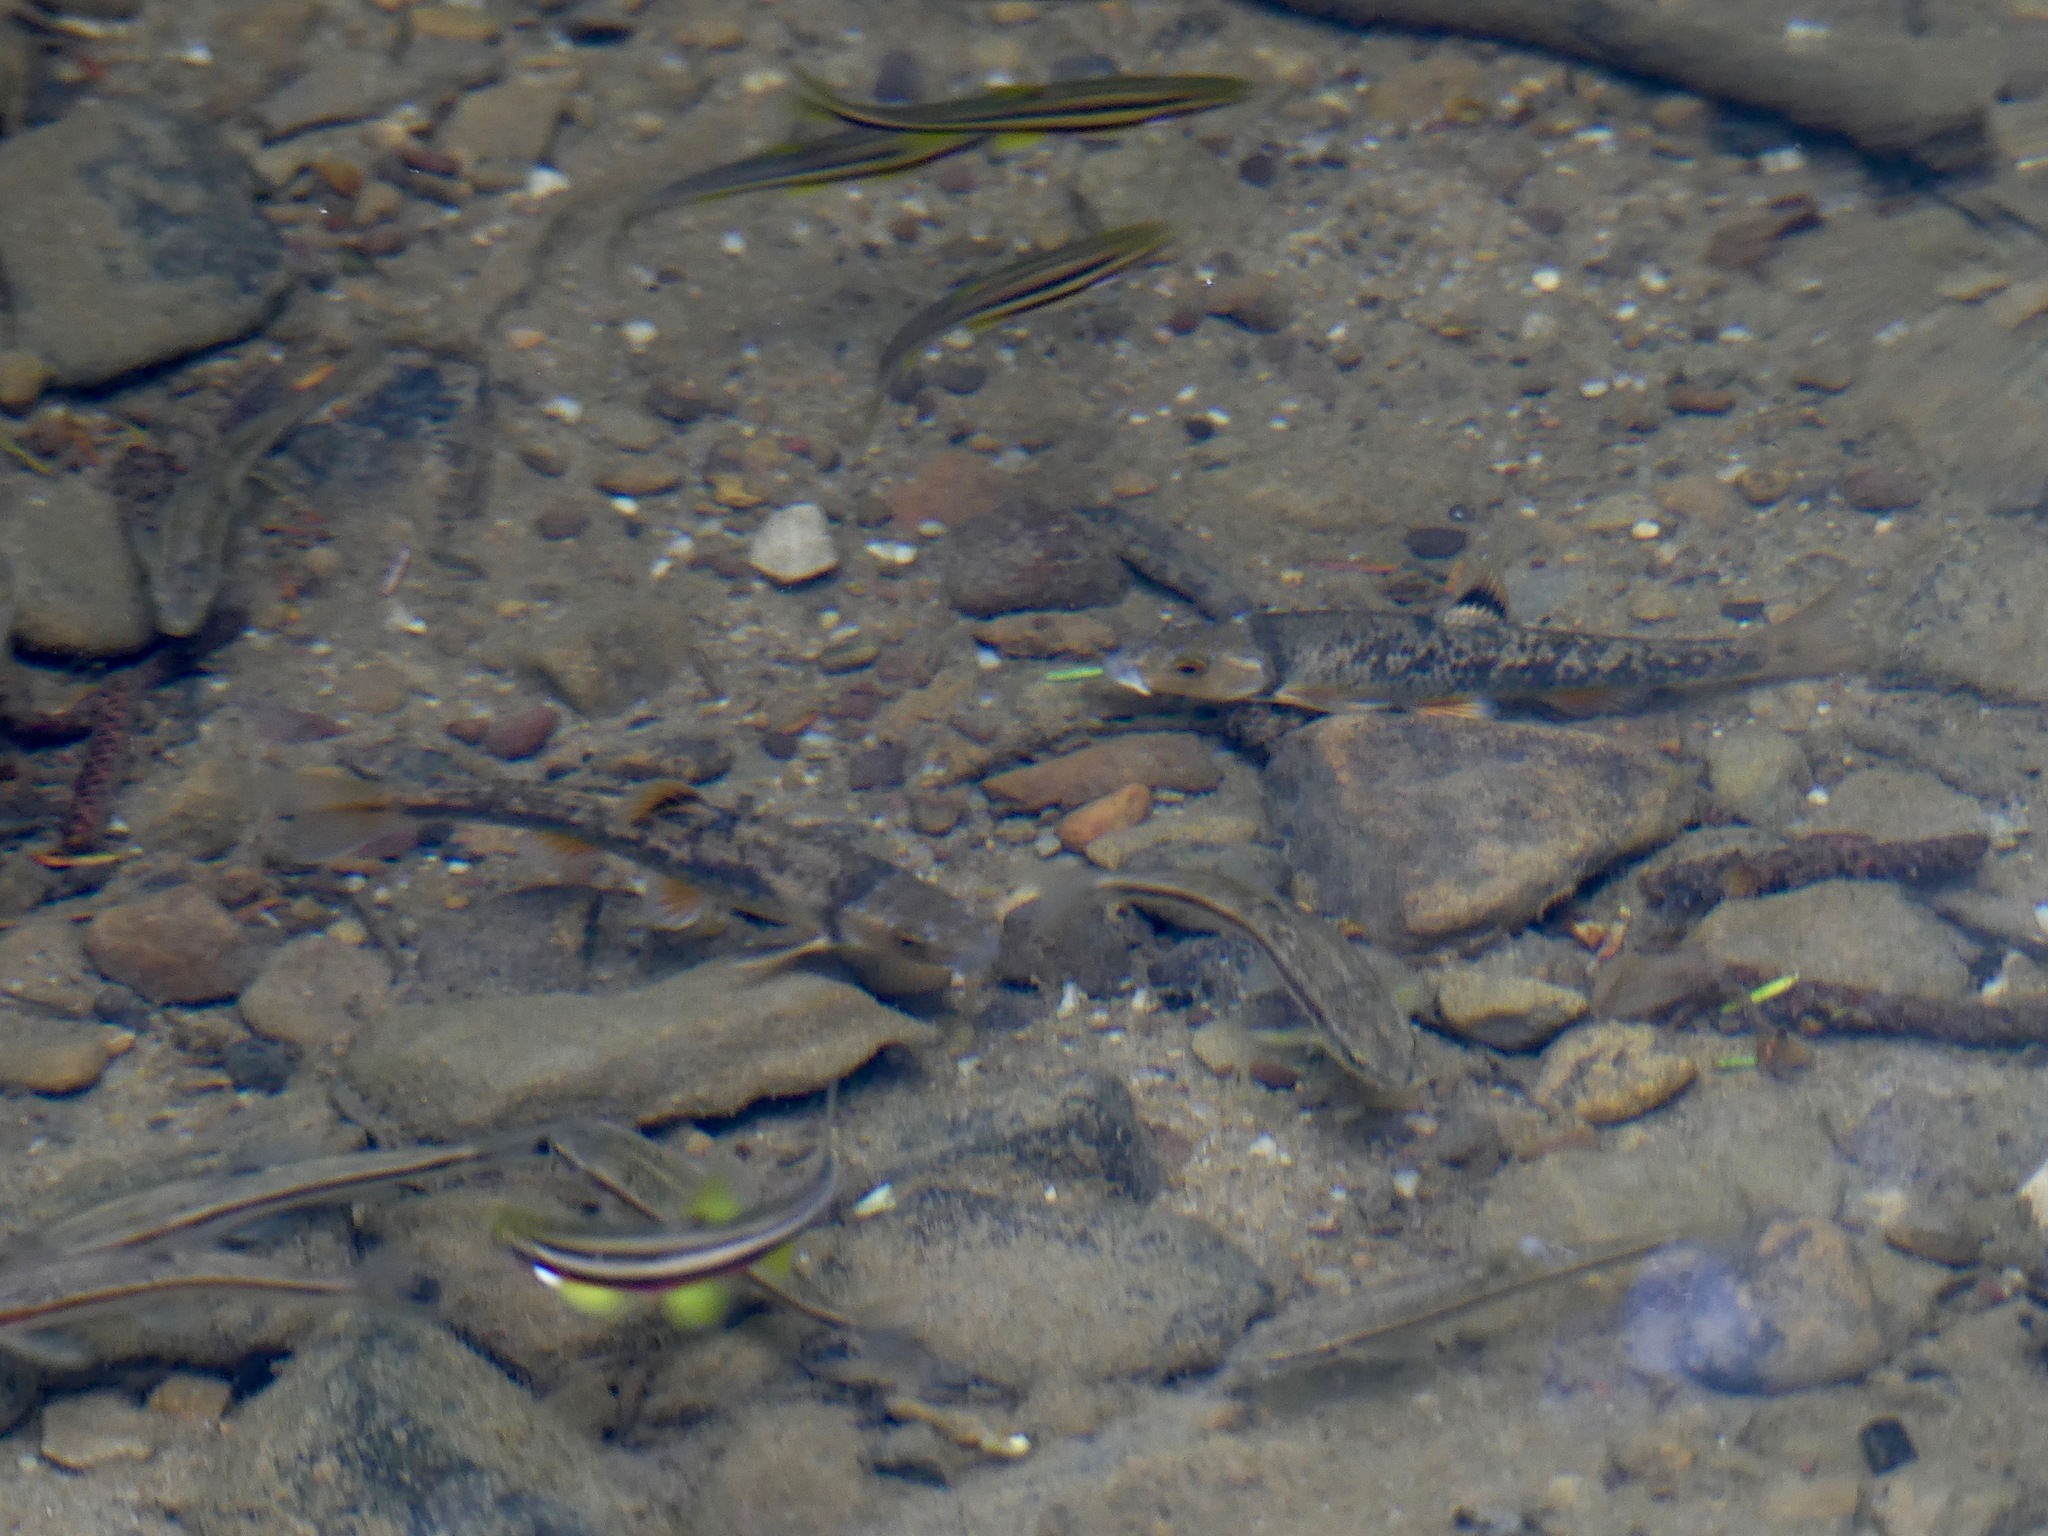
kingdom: Animalia
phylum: Chordata
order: Cypriniformes
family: Cyprinidae
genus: Campostoma
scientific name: Campostoma anomalum
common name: Central stoneroller
